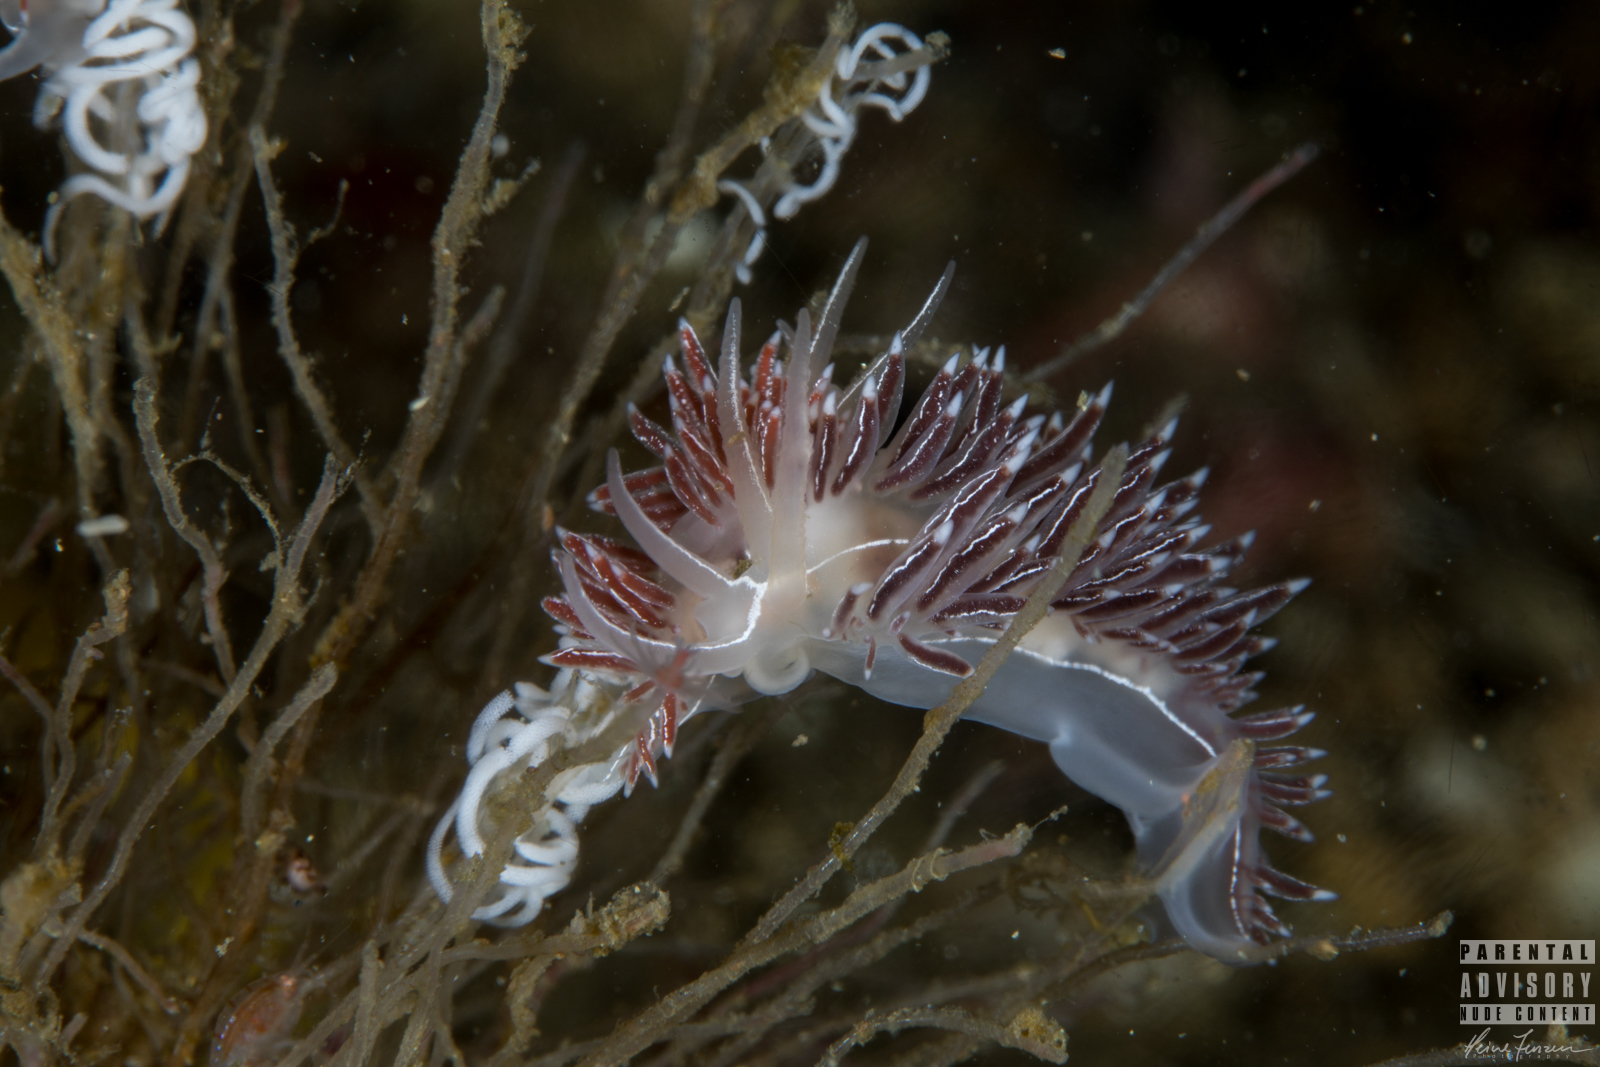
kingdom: Animalia
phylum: Mollusca
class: Gastropoda
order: Nudibranchia
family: Coryphellidae
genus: Coryphella
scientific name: Coryphella chriskaugei
